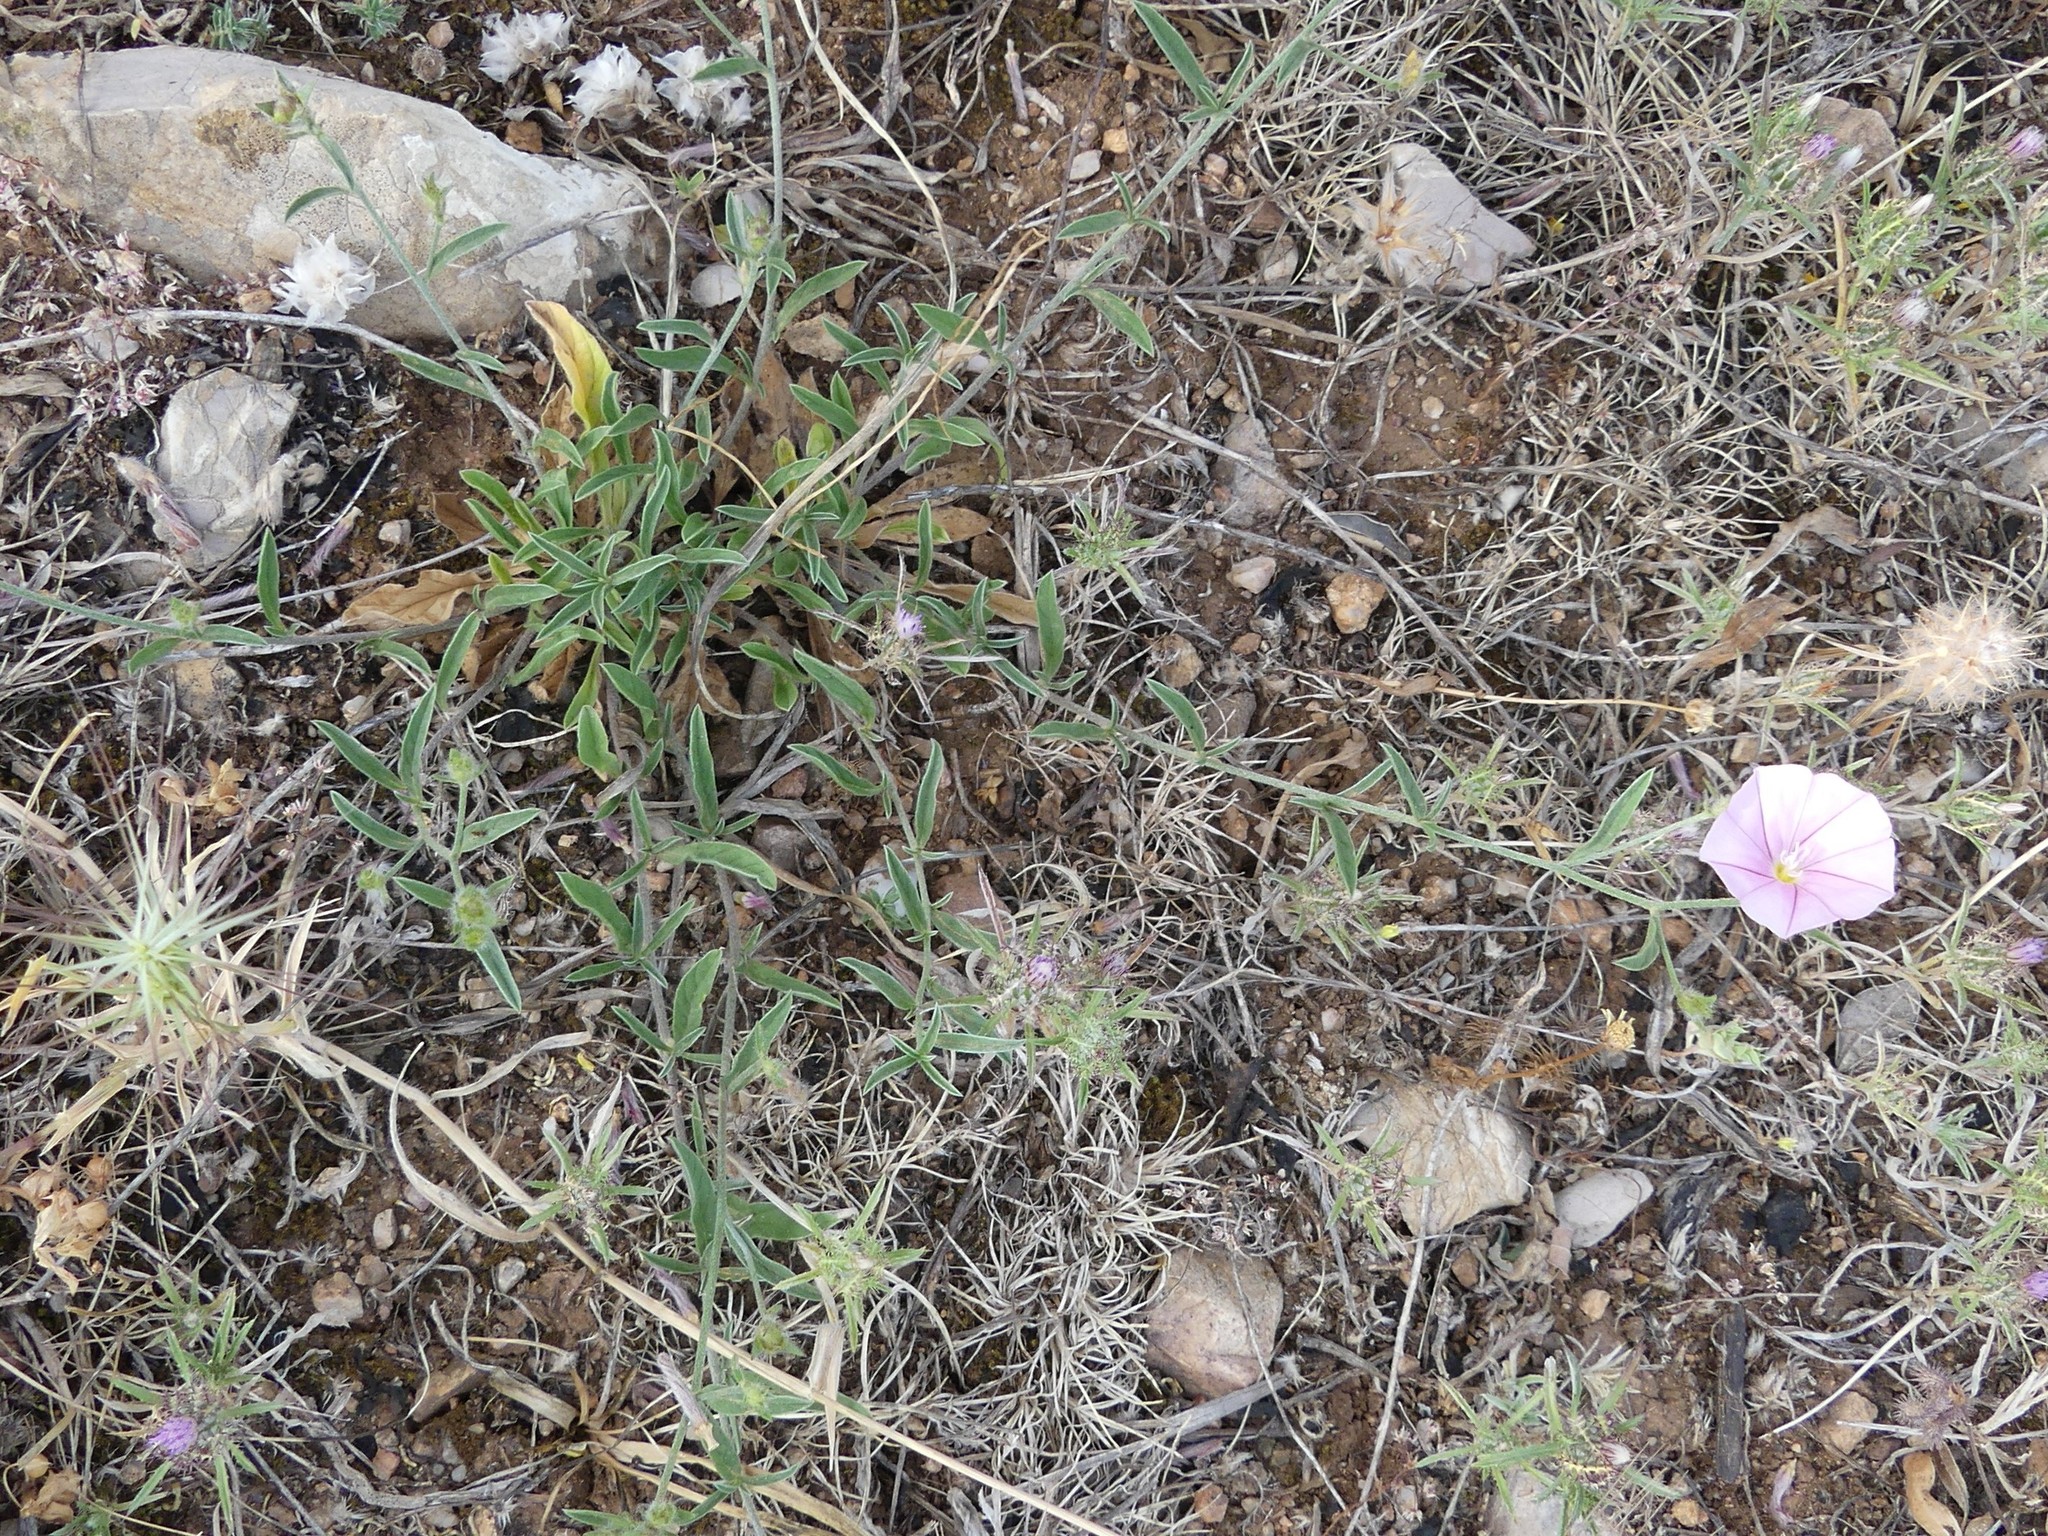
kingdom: Plantae
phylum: Tracheophyta
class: Magnoliopsida
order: Solanales
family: Convolvulaceae
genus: Convolvulus
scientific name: Convolvulus cantabrica
